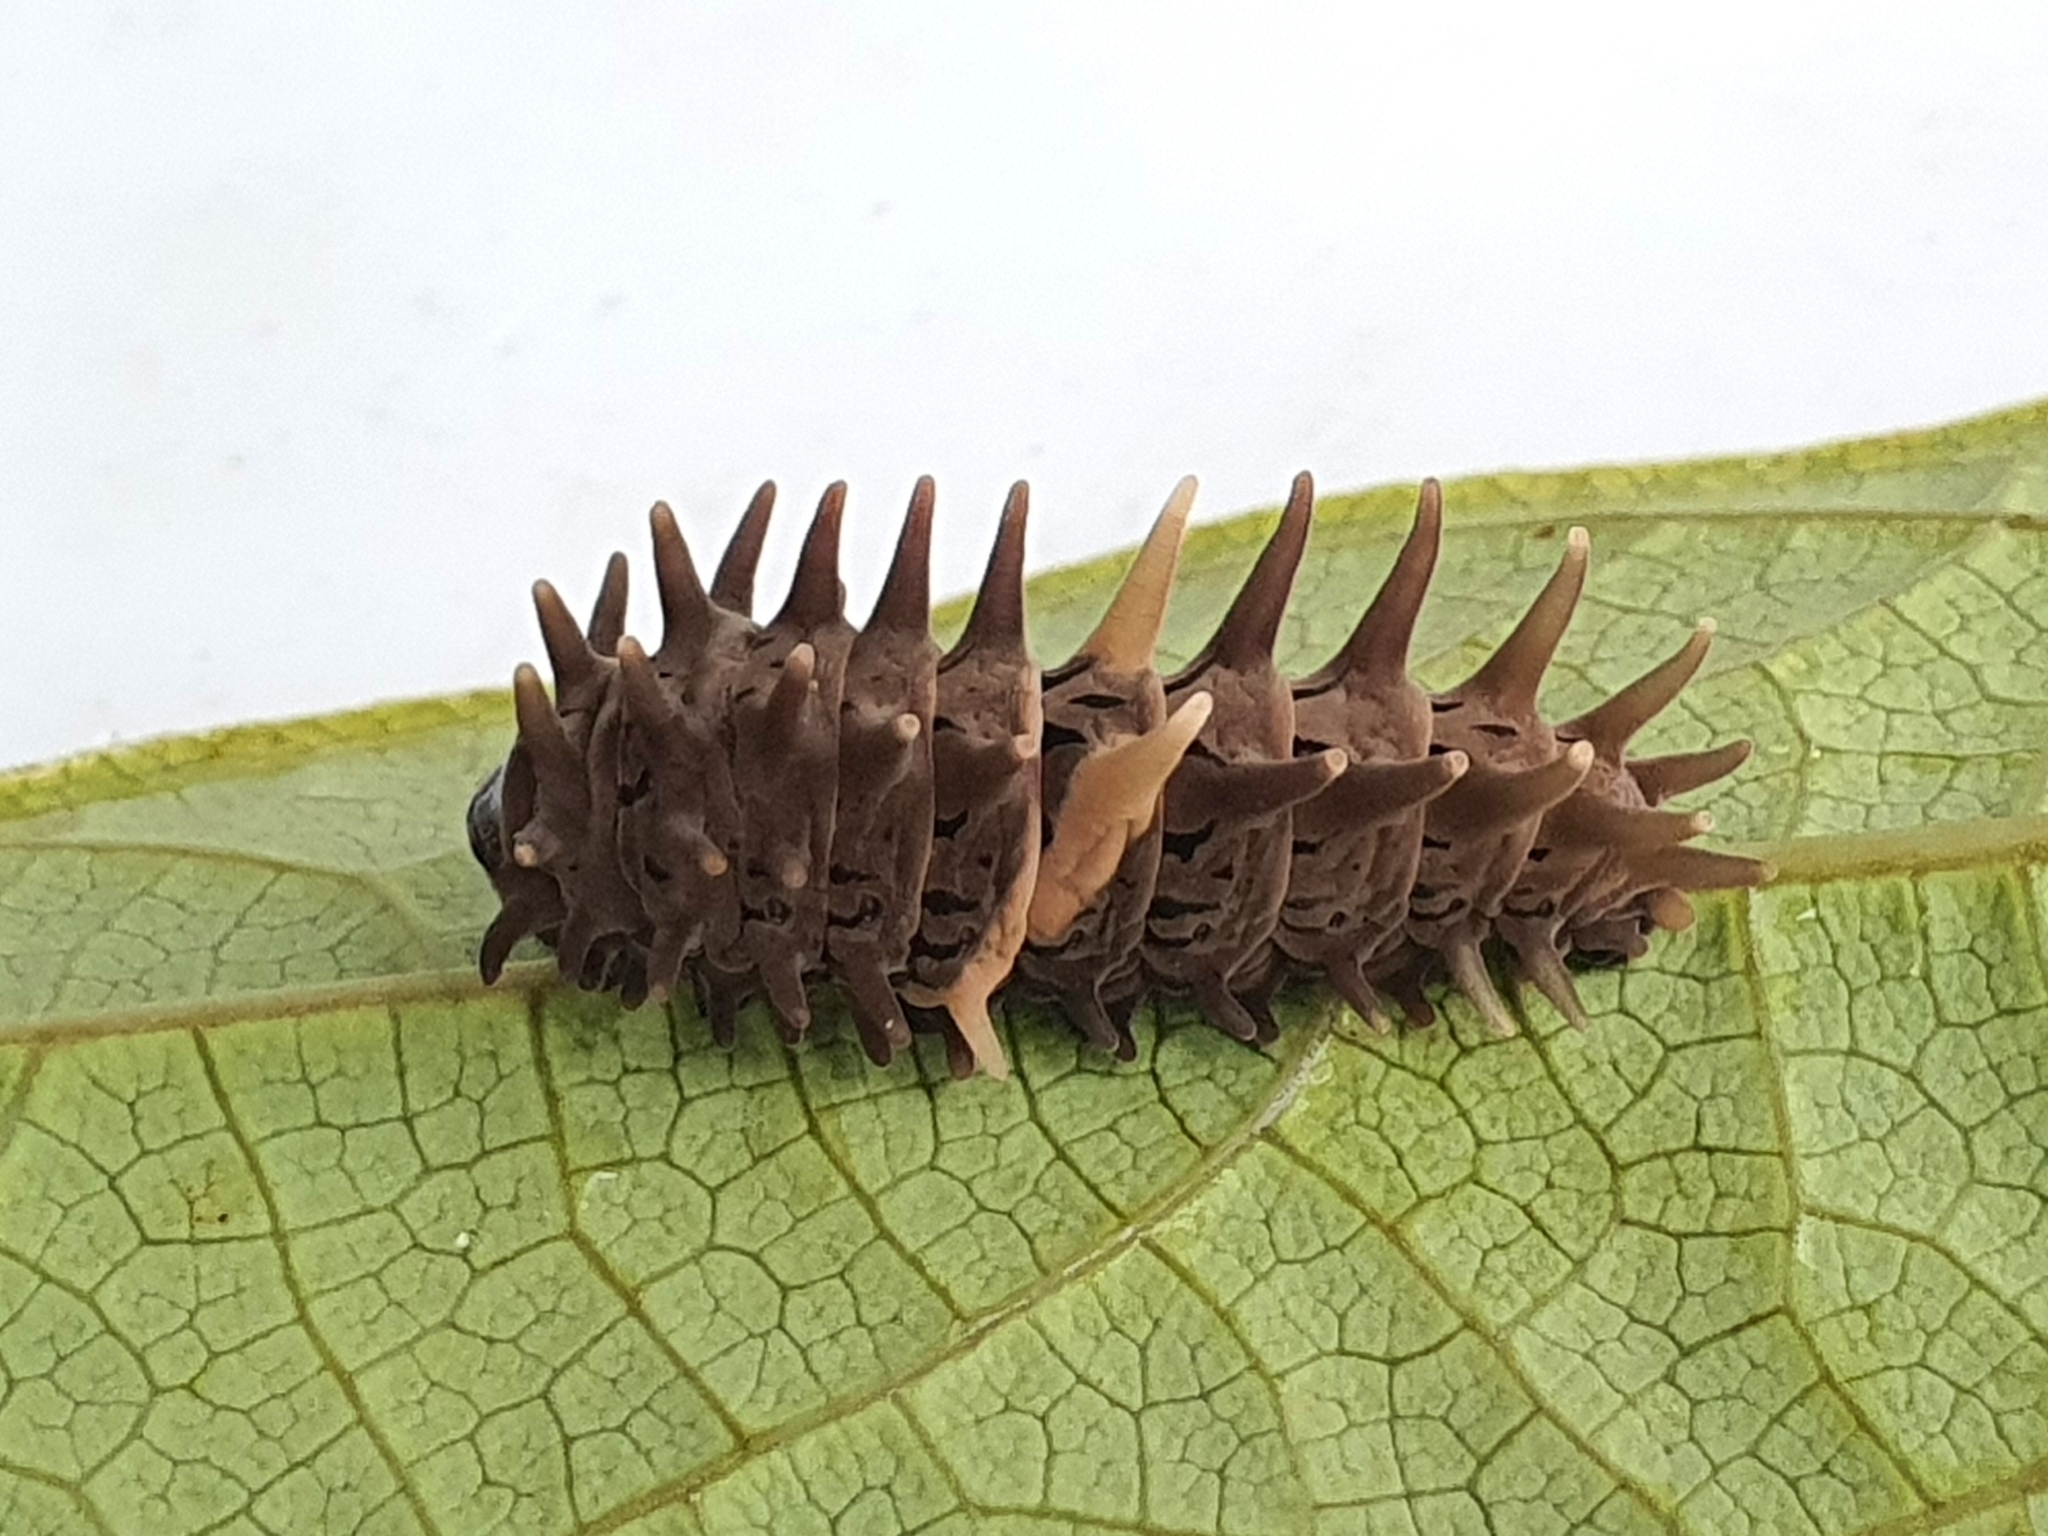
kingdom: Animalia
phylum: Arthropoda
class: Insecta
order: Lepidoptera
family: Papilionidae
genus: Troides
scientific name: Troides helena
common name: Common birdwing
